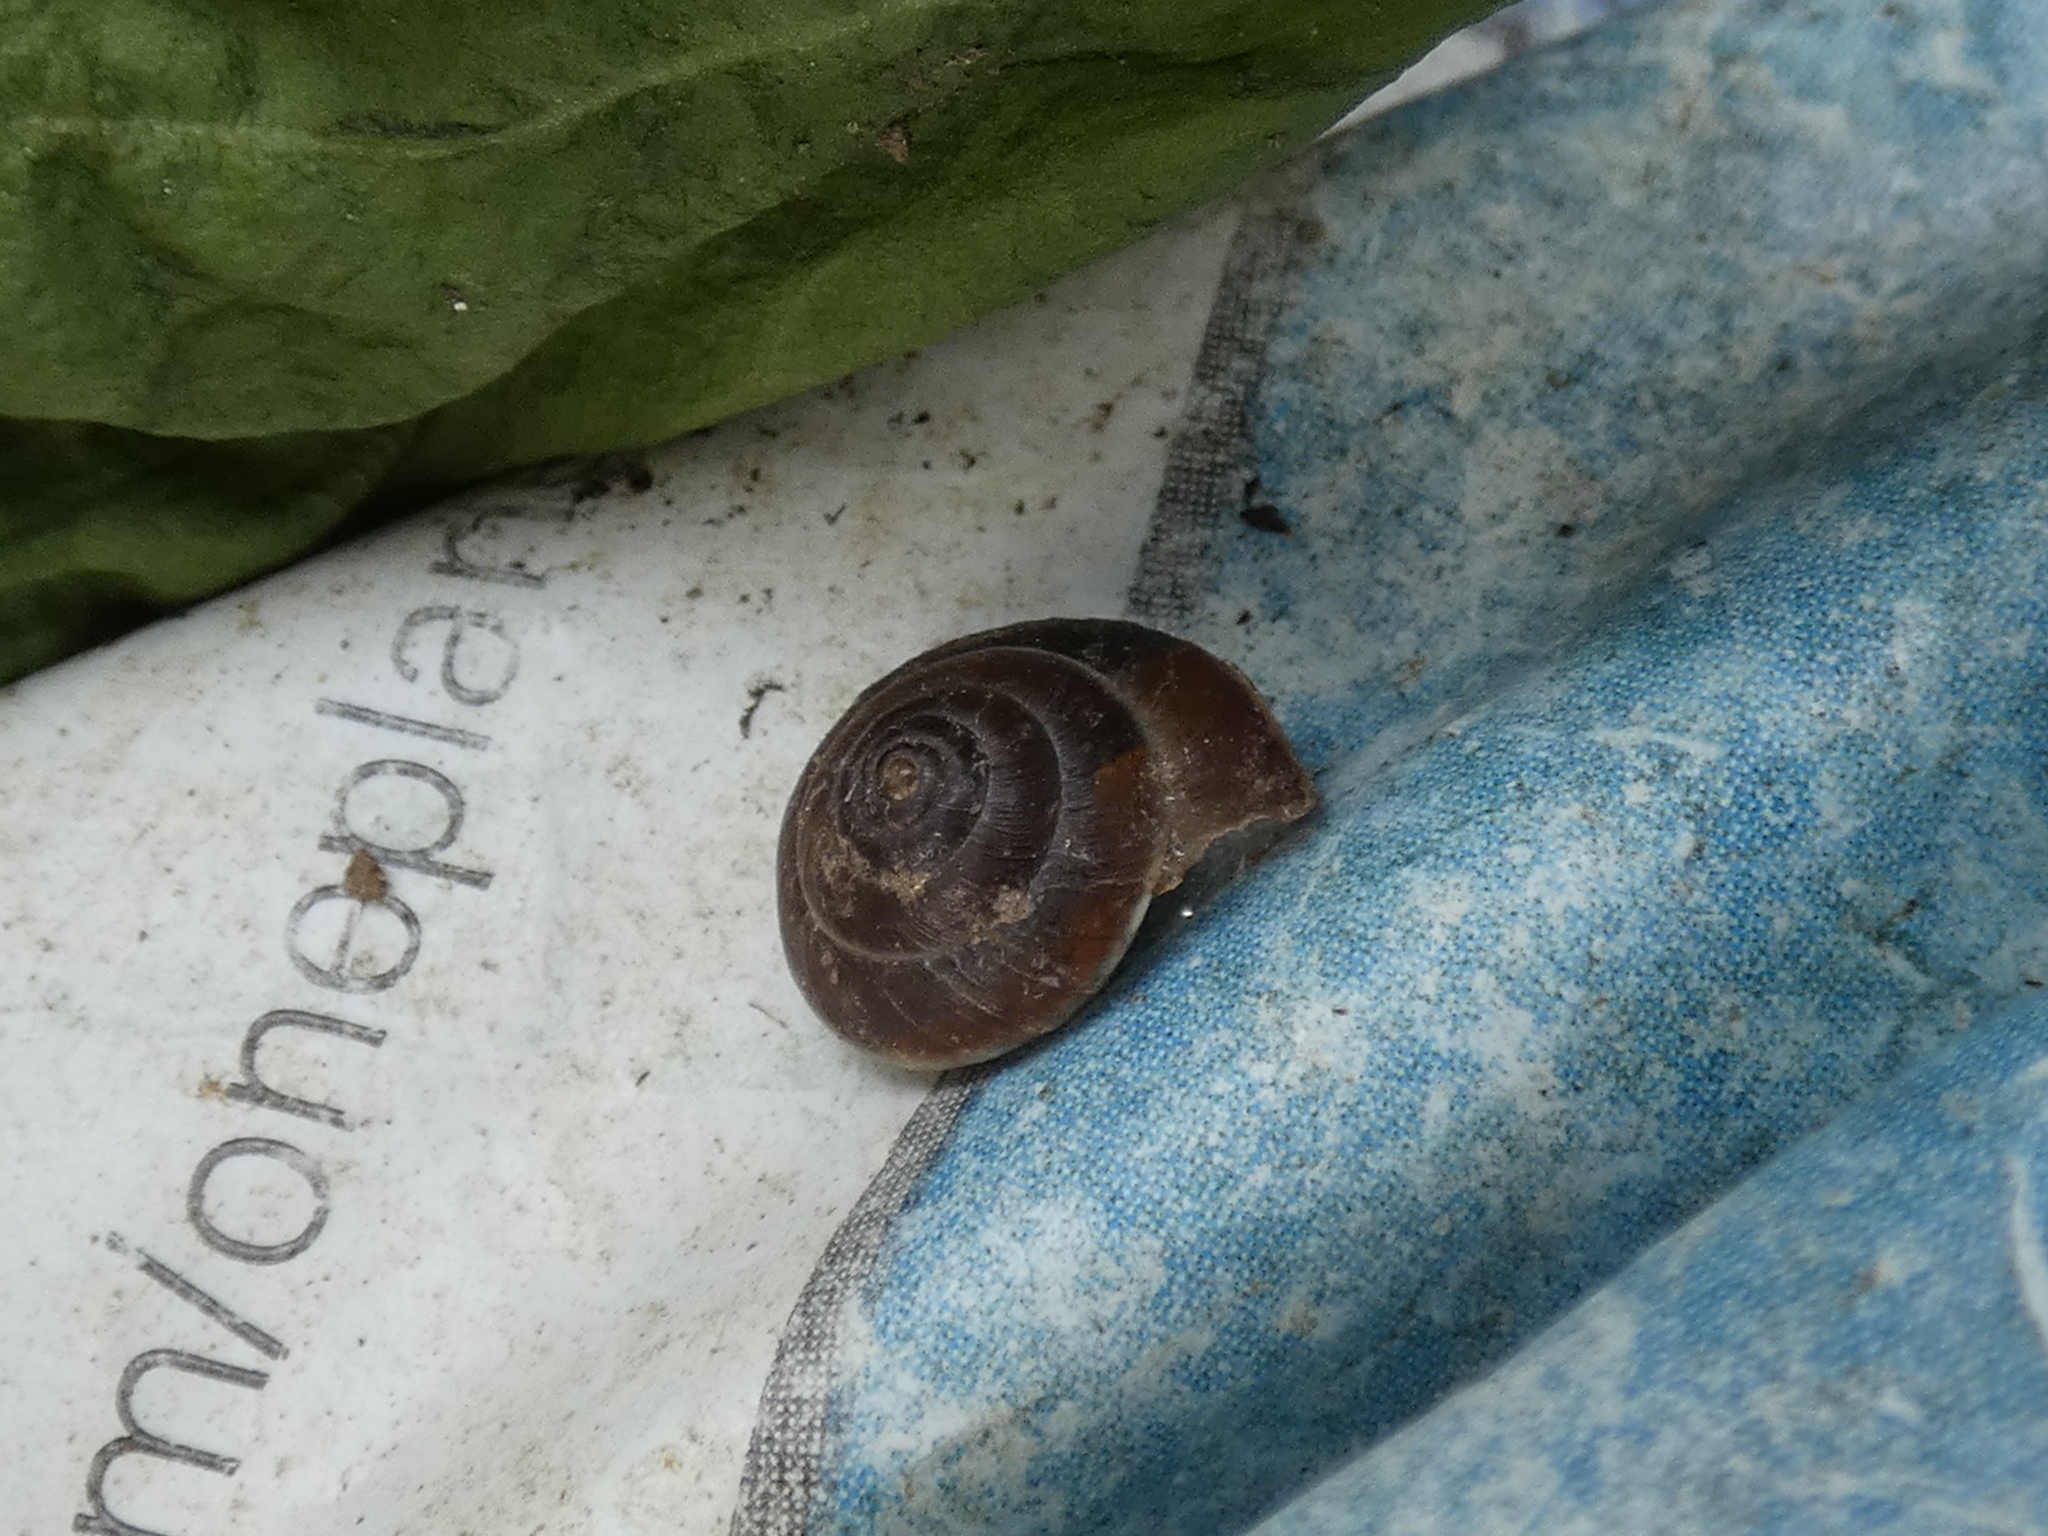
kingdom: Animalia
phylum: Mollusca
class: Gastropoda
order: Stylommatophora
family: Hygromiidae
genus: Hygromia
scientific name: Hygromia cinctella
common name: Girdled snail
